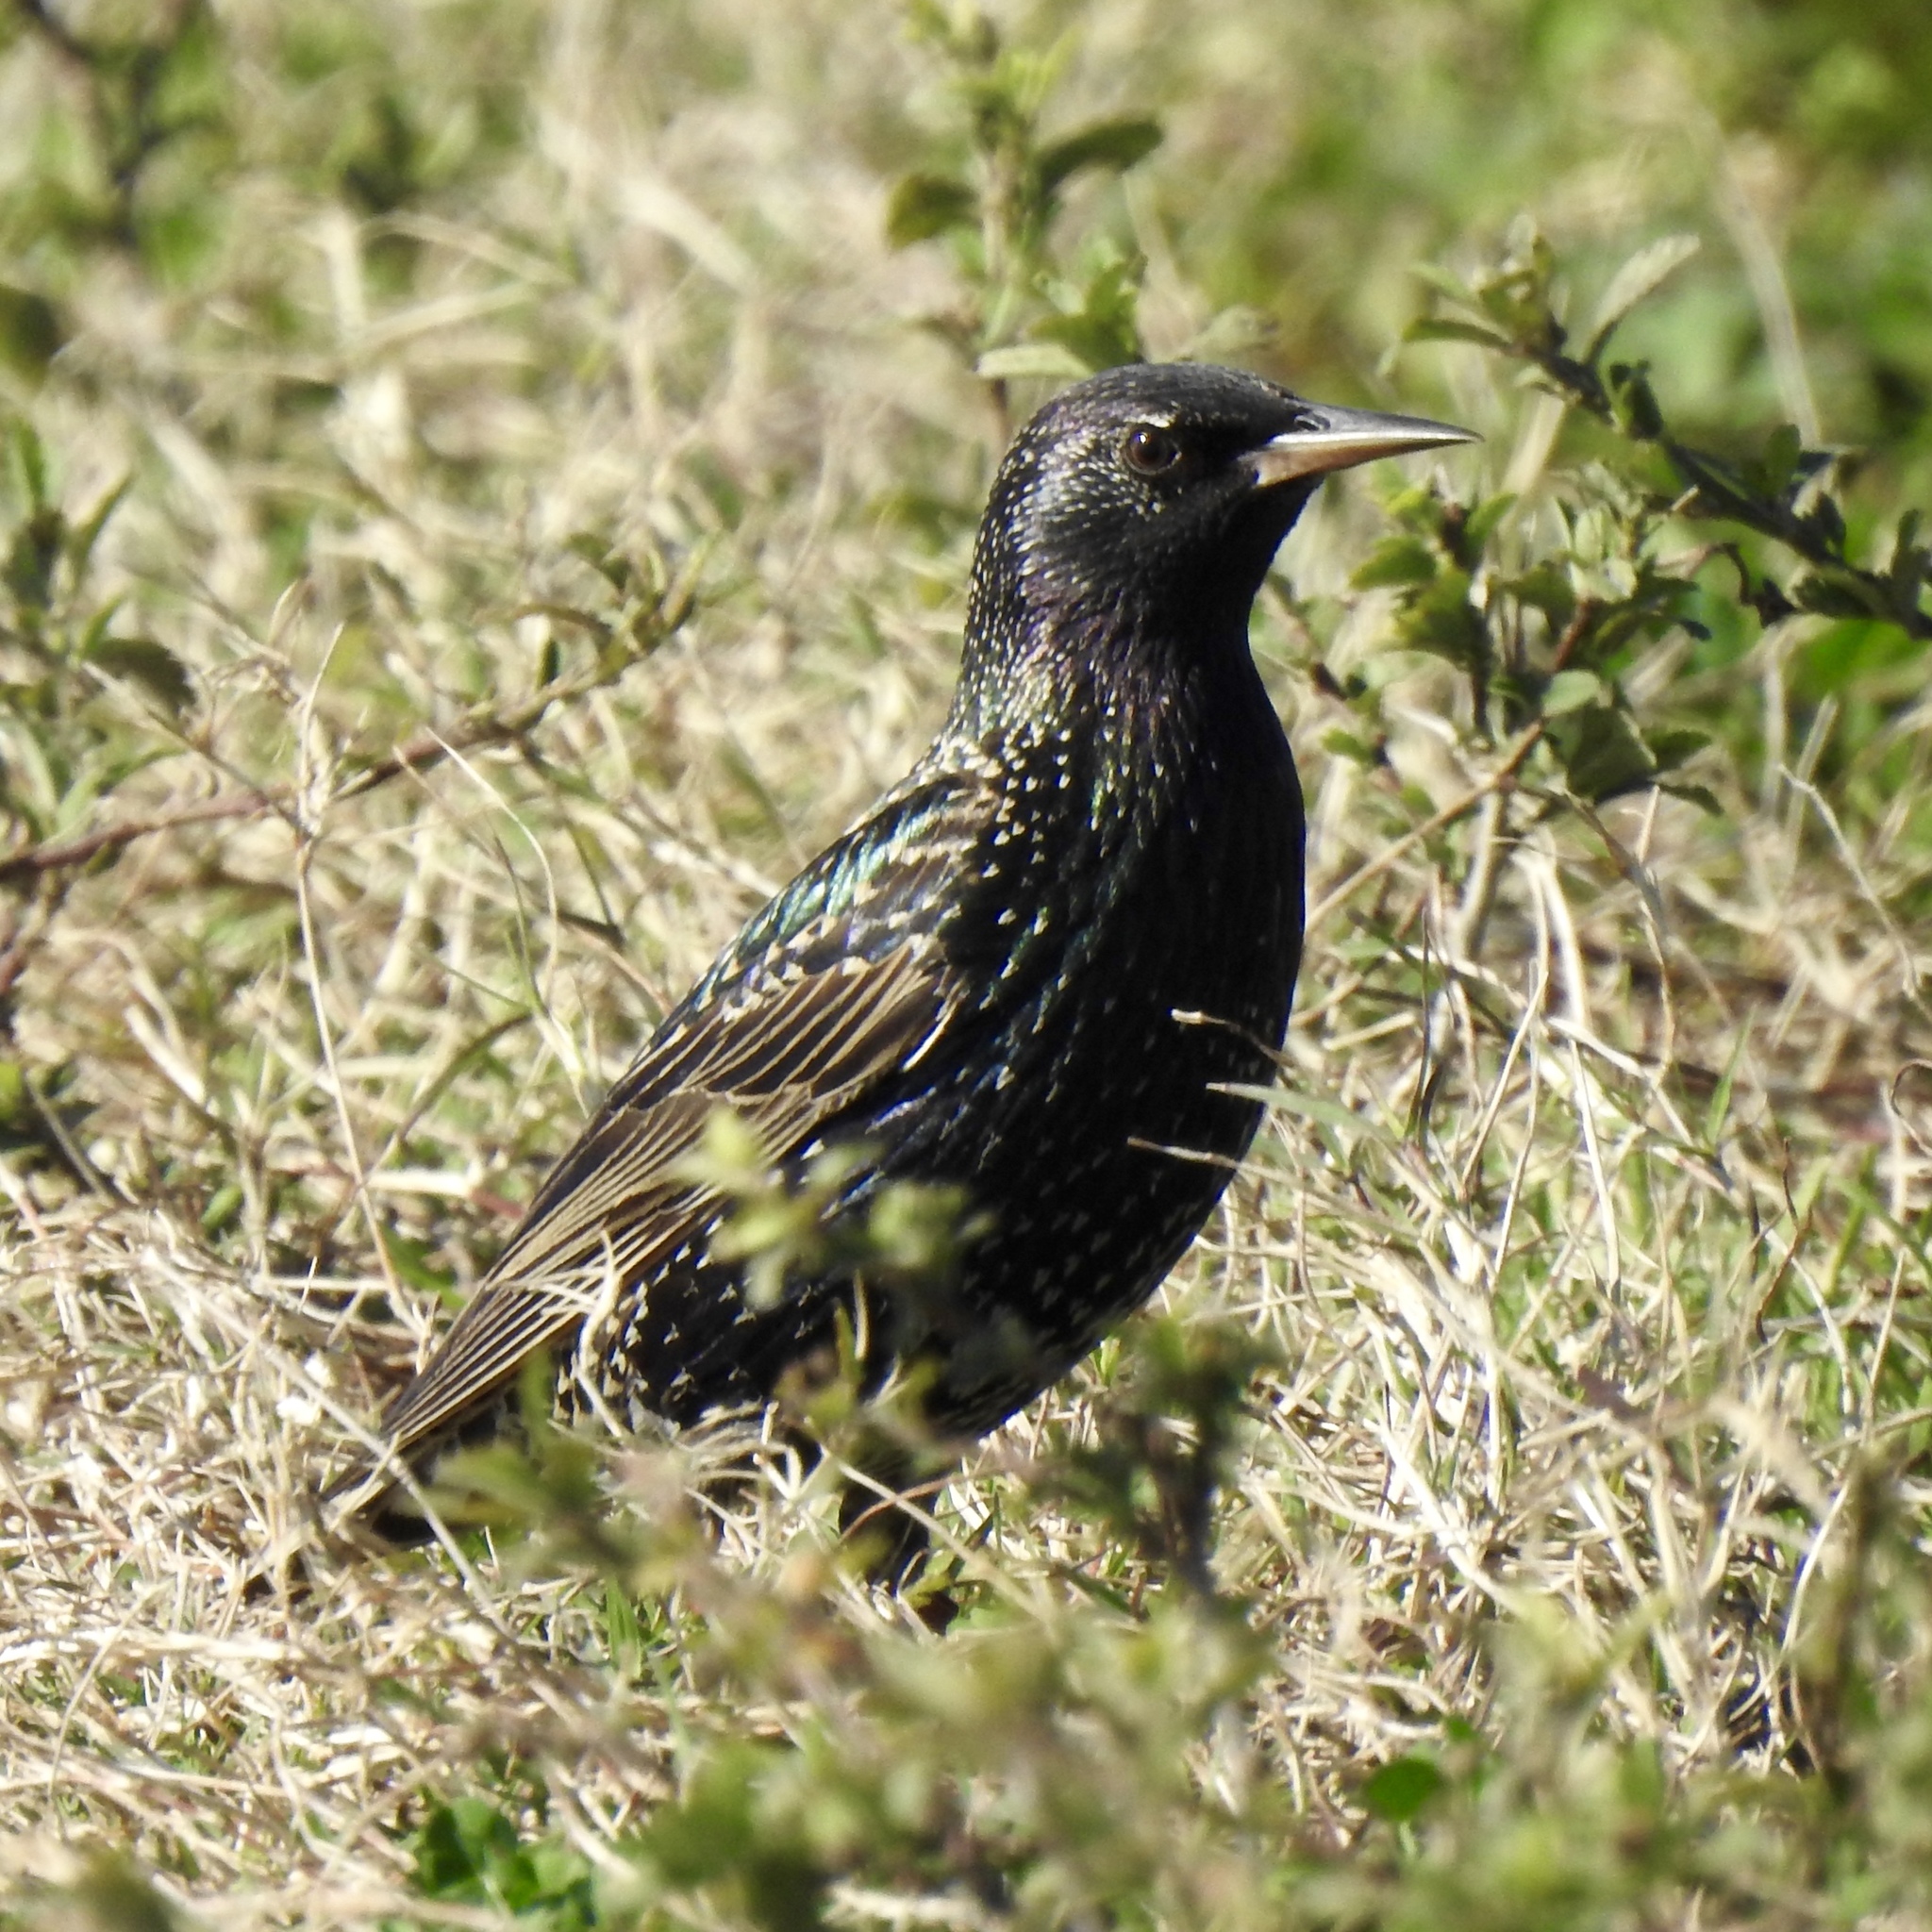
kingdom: Animalia
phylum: Chordata
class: Aves
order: Passeriformes
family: Sturnidae
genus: Sturnus
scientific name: Sturnus vulgaris
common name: Common starling
